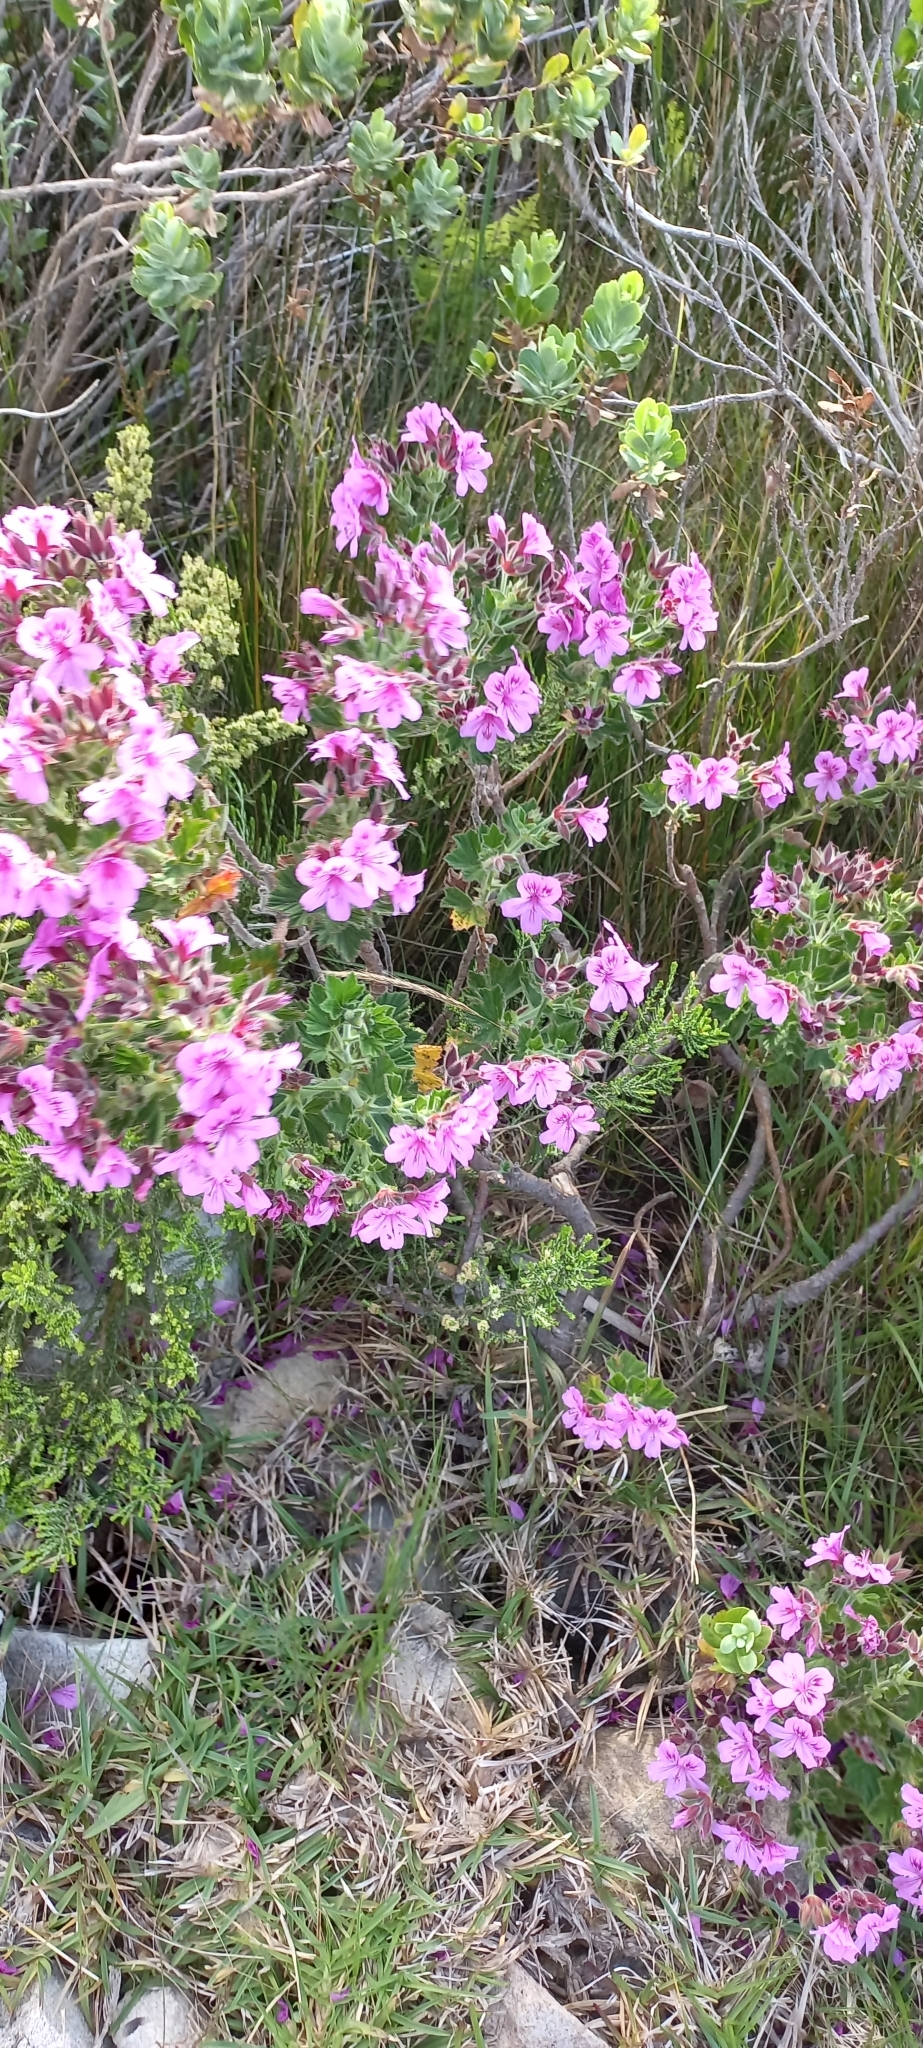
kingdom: Plantae
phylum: Tracheophyta
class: Magnoliopsida
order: Geraniales
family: Geraniaceae
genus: Pelargonium
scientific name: Pelargonium cucullatum
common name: Tree pelargonium
